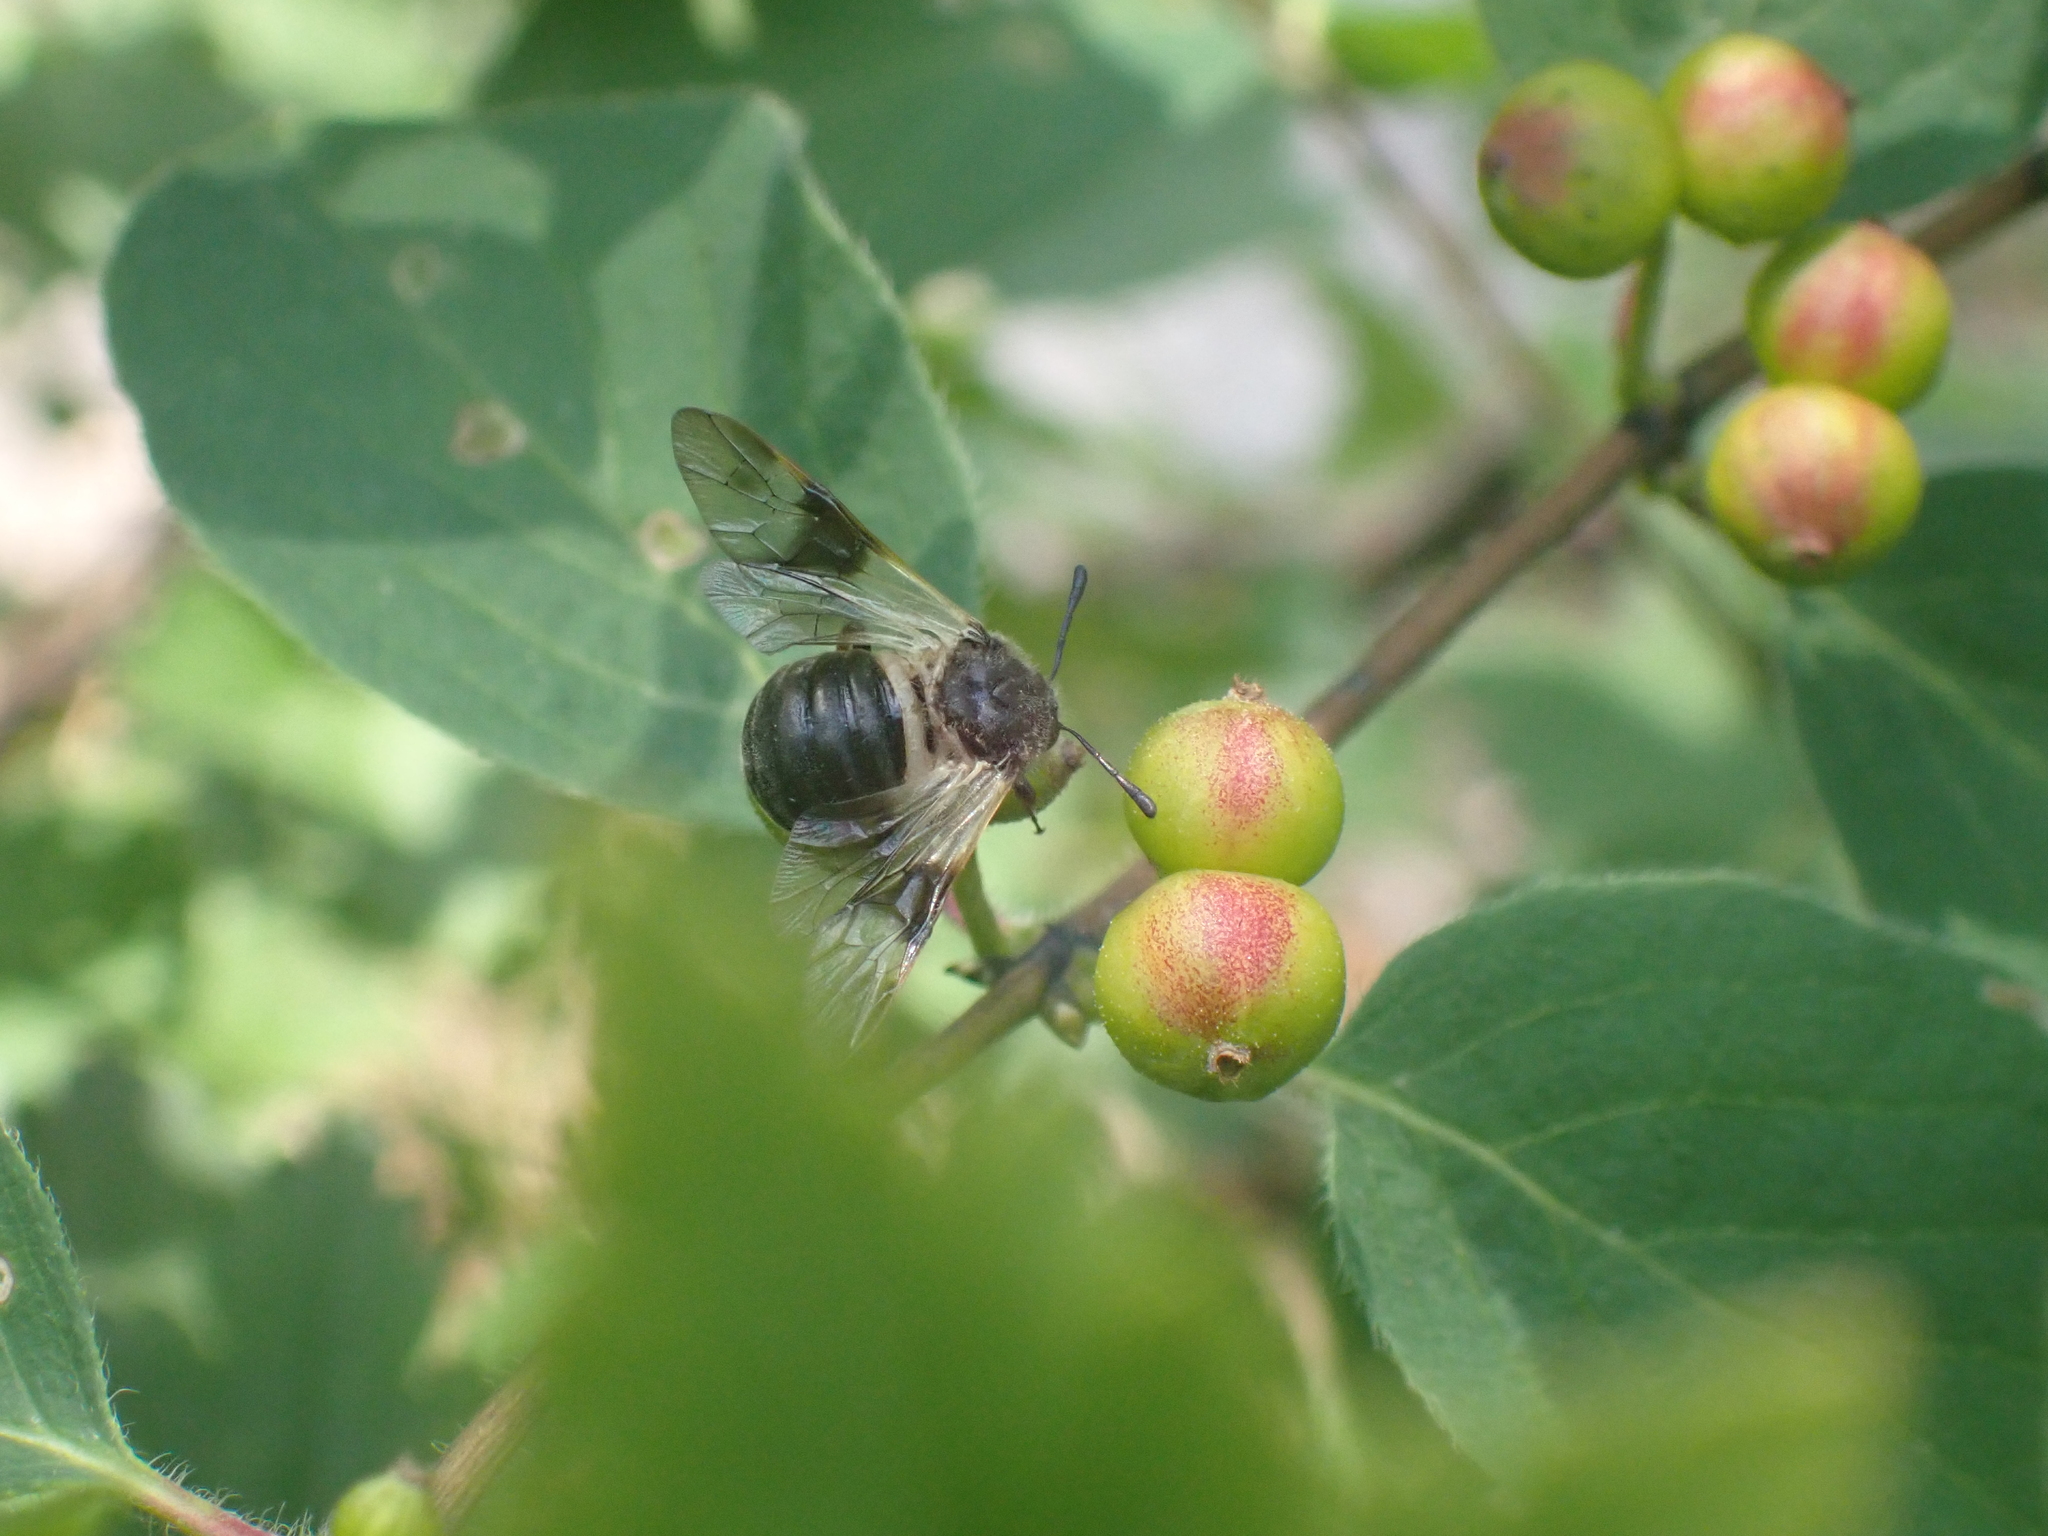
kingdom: Animalia
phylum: Arthropoda
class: Insecta
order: Hymenoptera
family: Cimbicidae
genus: Abia
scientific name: Abia fasciata
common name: Banded honeysuckle sawfly
